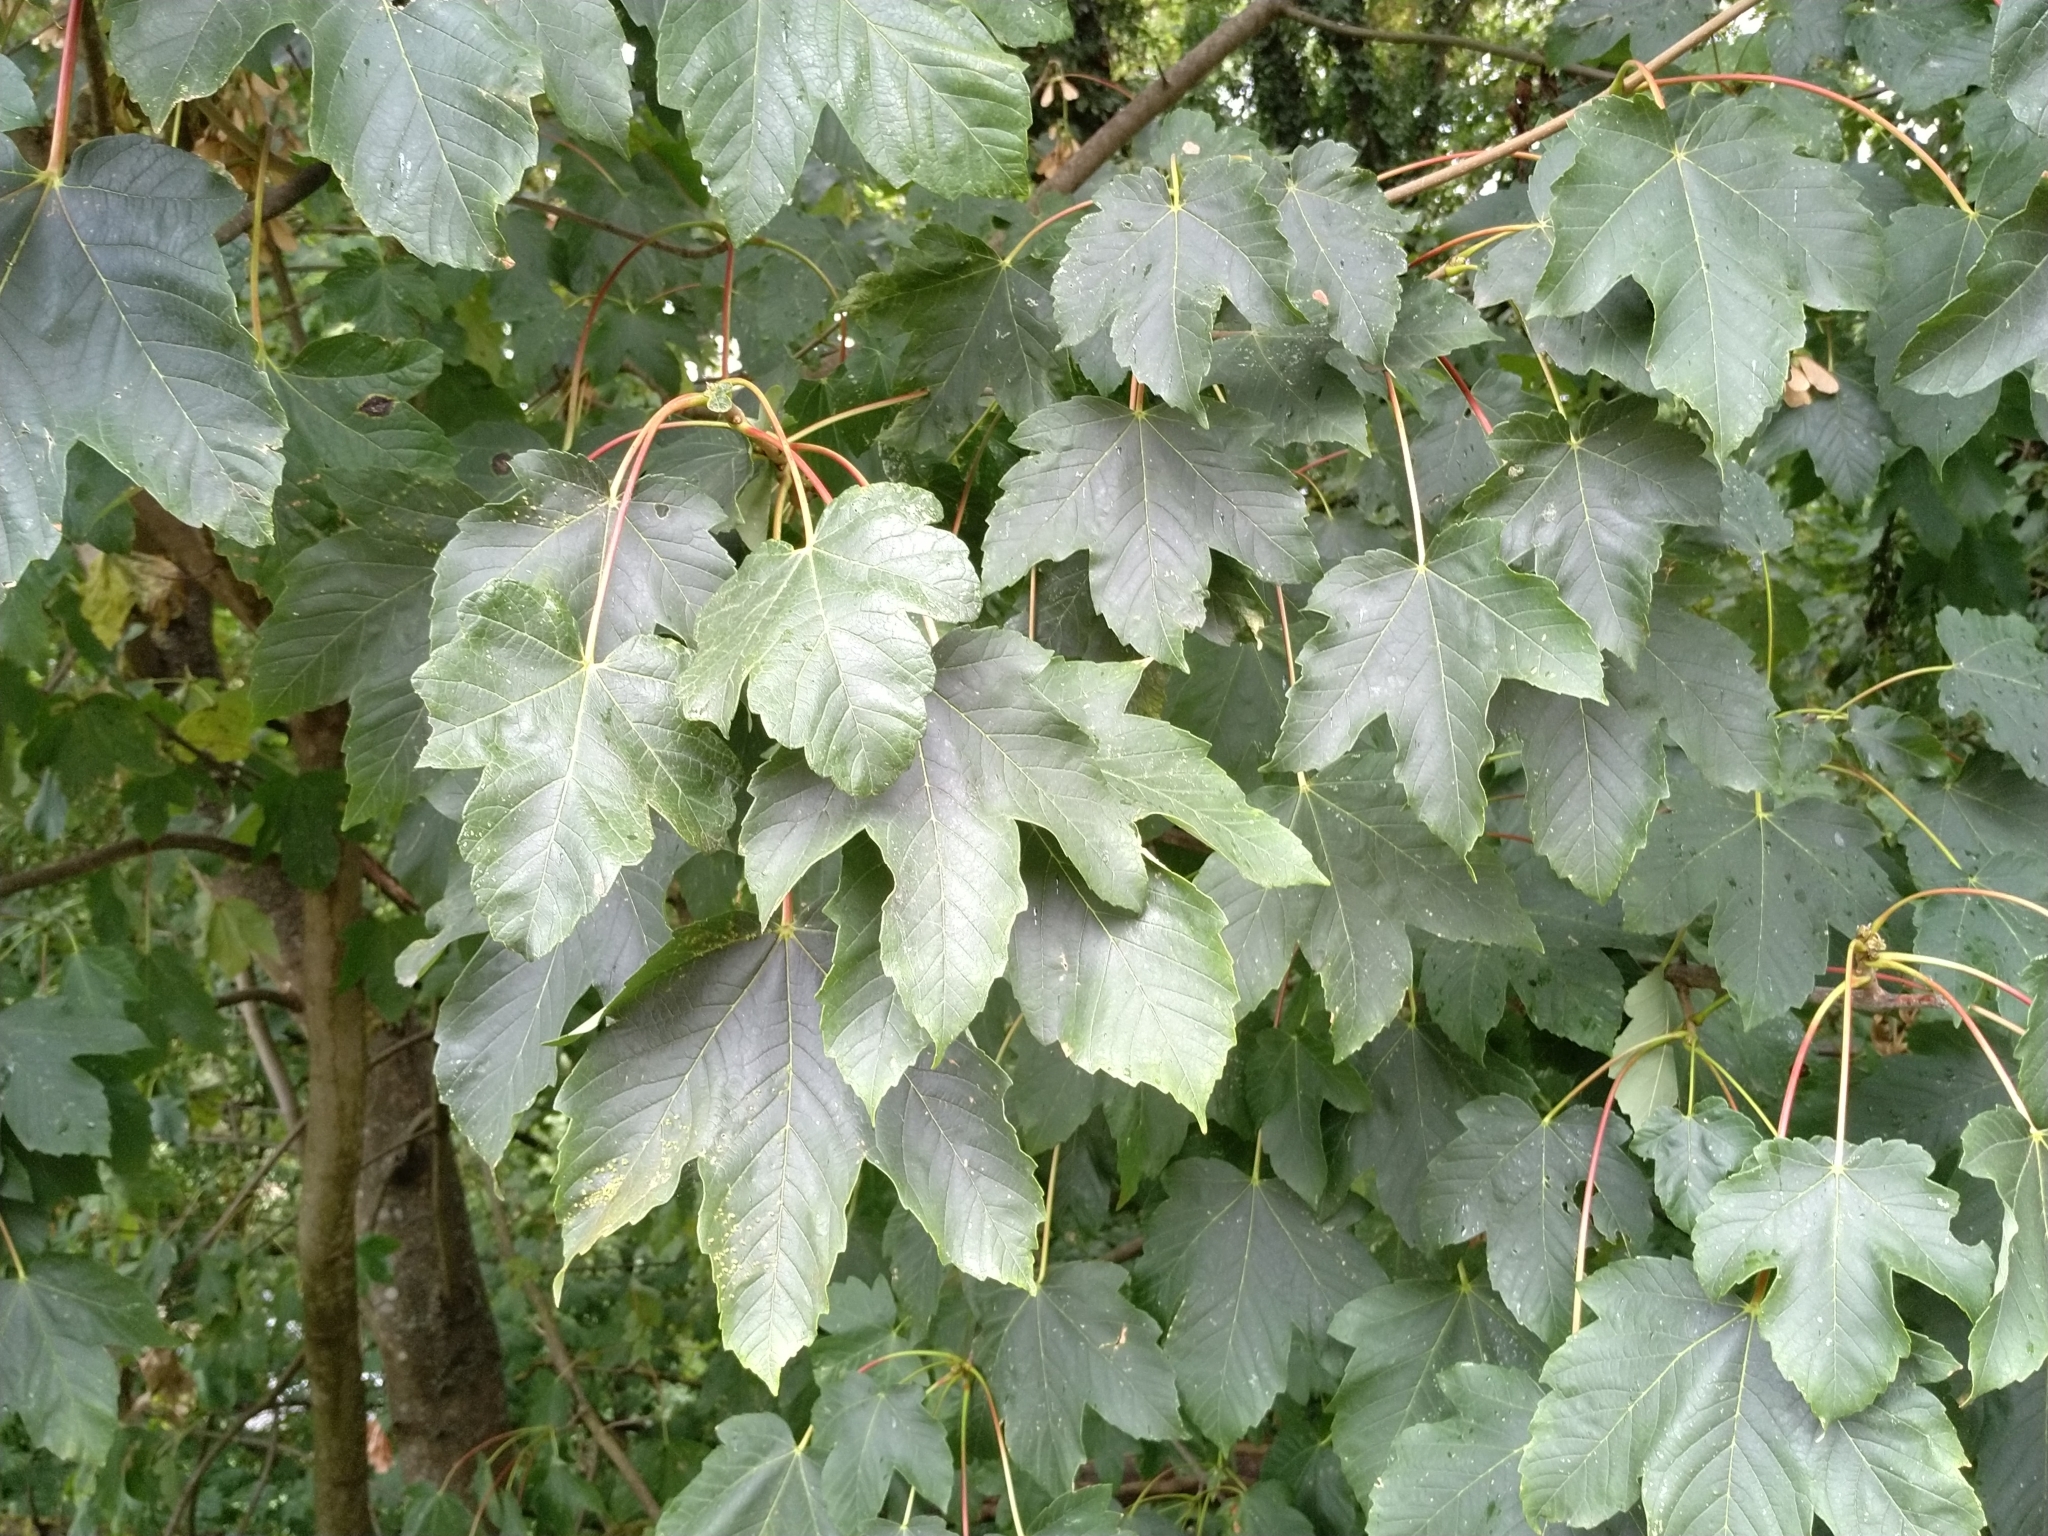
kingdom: Plantae
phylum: Tracheophyta
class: Magnoliopsida
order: Sapindales
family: Sapindaceae
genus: Acer
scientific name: Acer pseudoplatanus
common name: Sycamore
